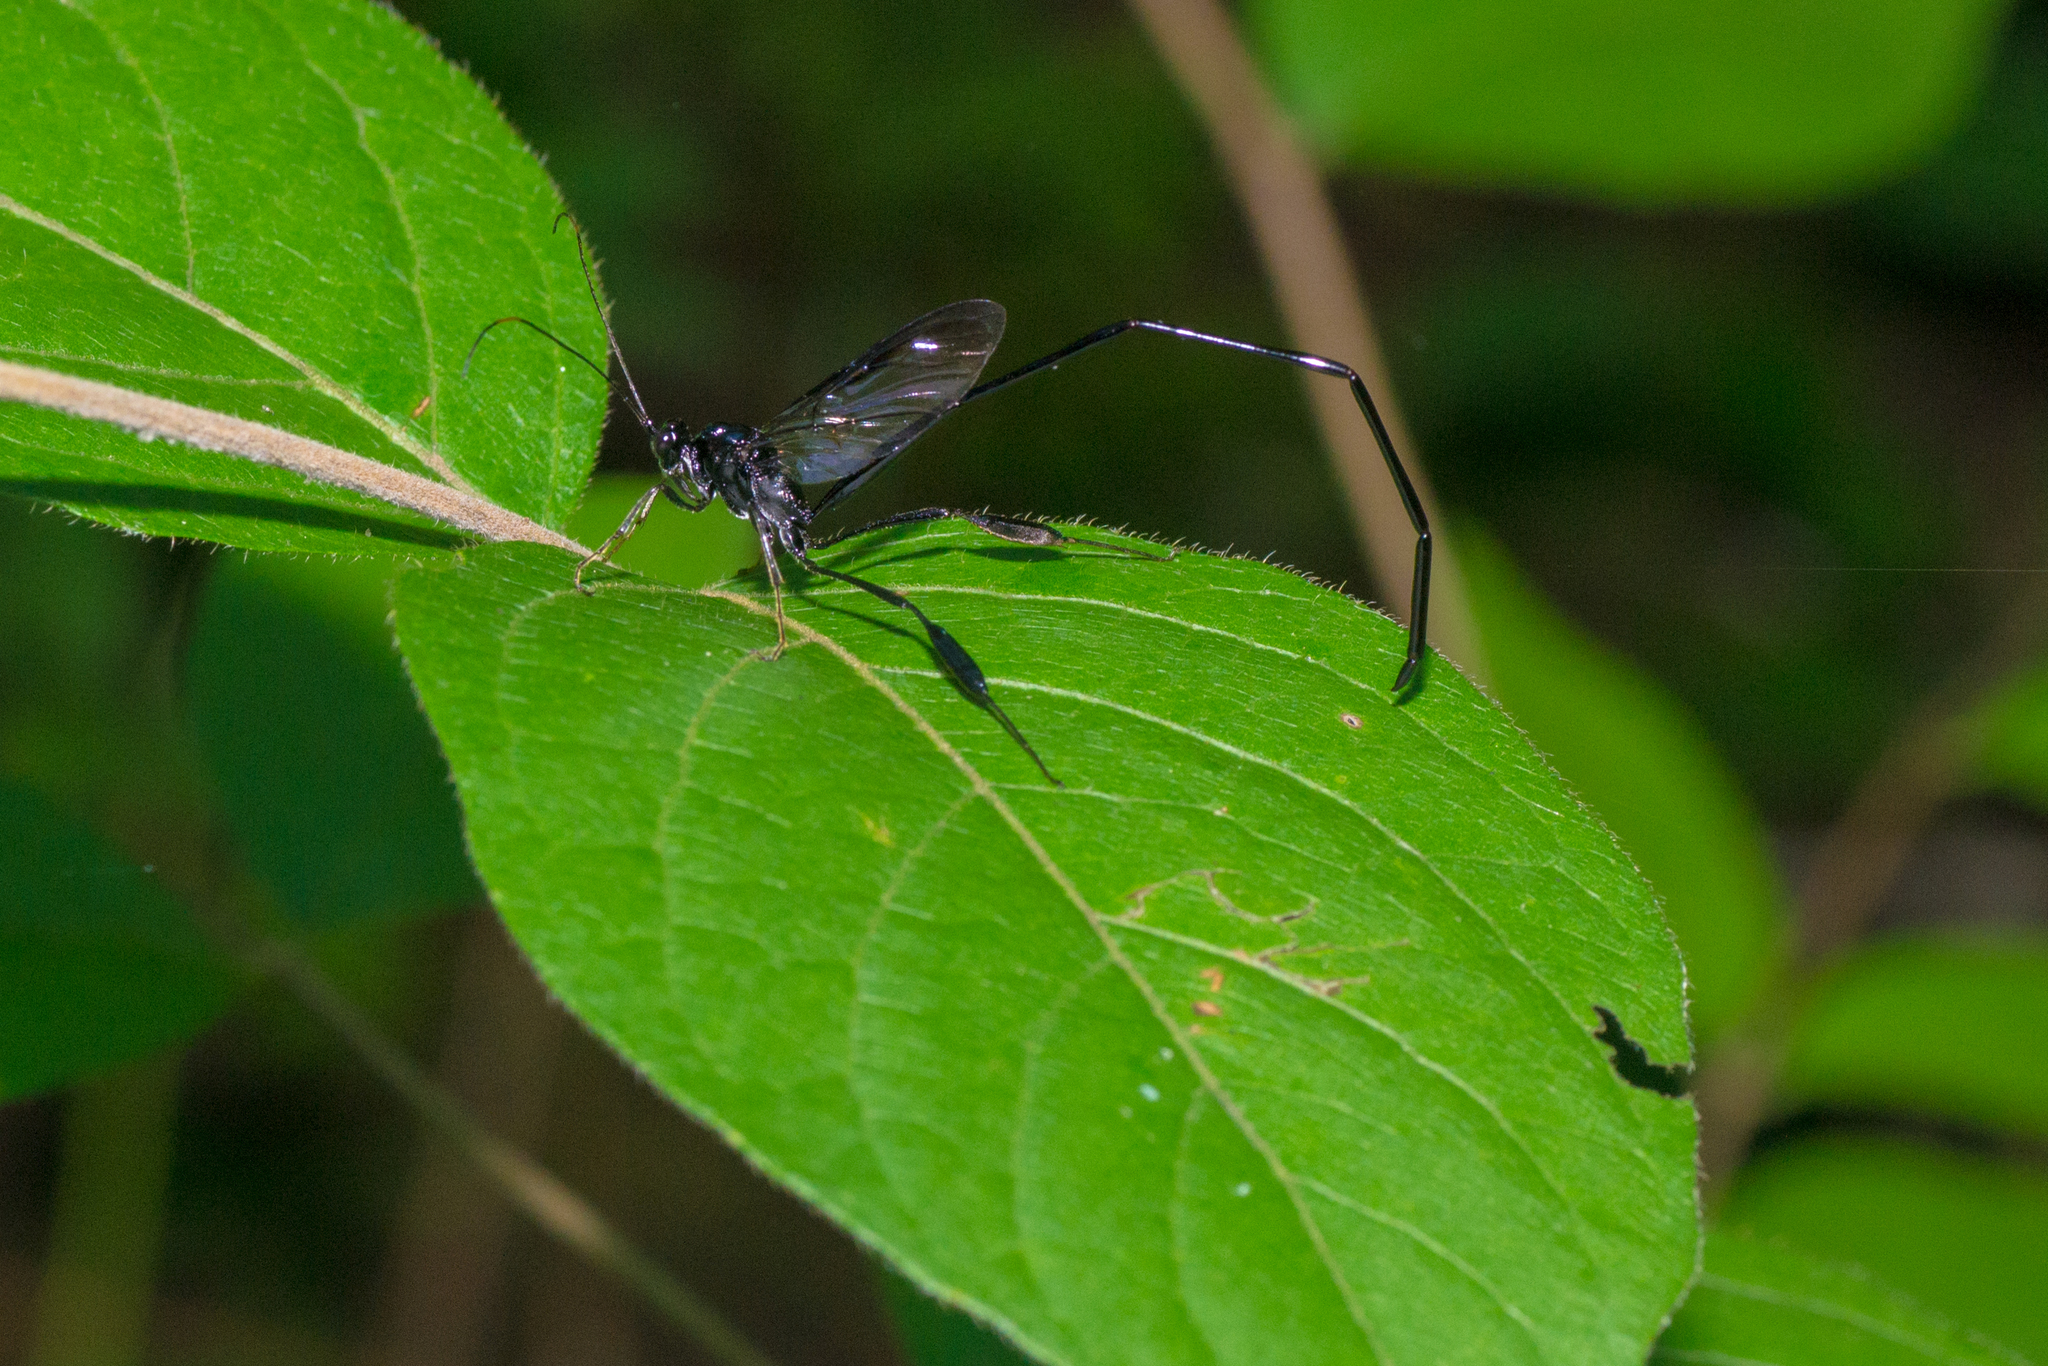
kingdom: Animalia
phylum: Arthropoda
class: Insecta
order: Hymenoptera
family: Pelecinidae
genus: Pelecinus
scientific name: Pelecinus polyturator
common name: American pelecinid wasp
